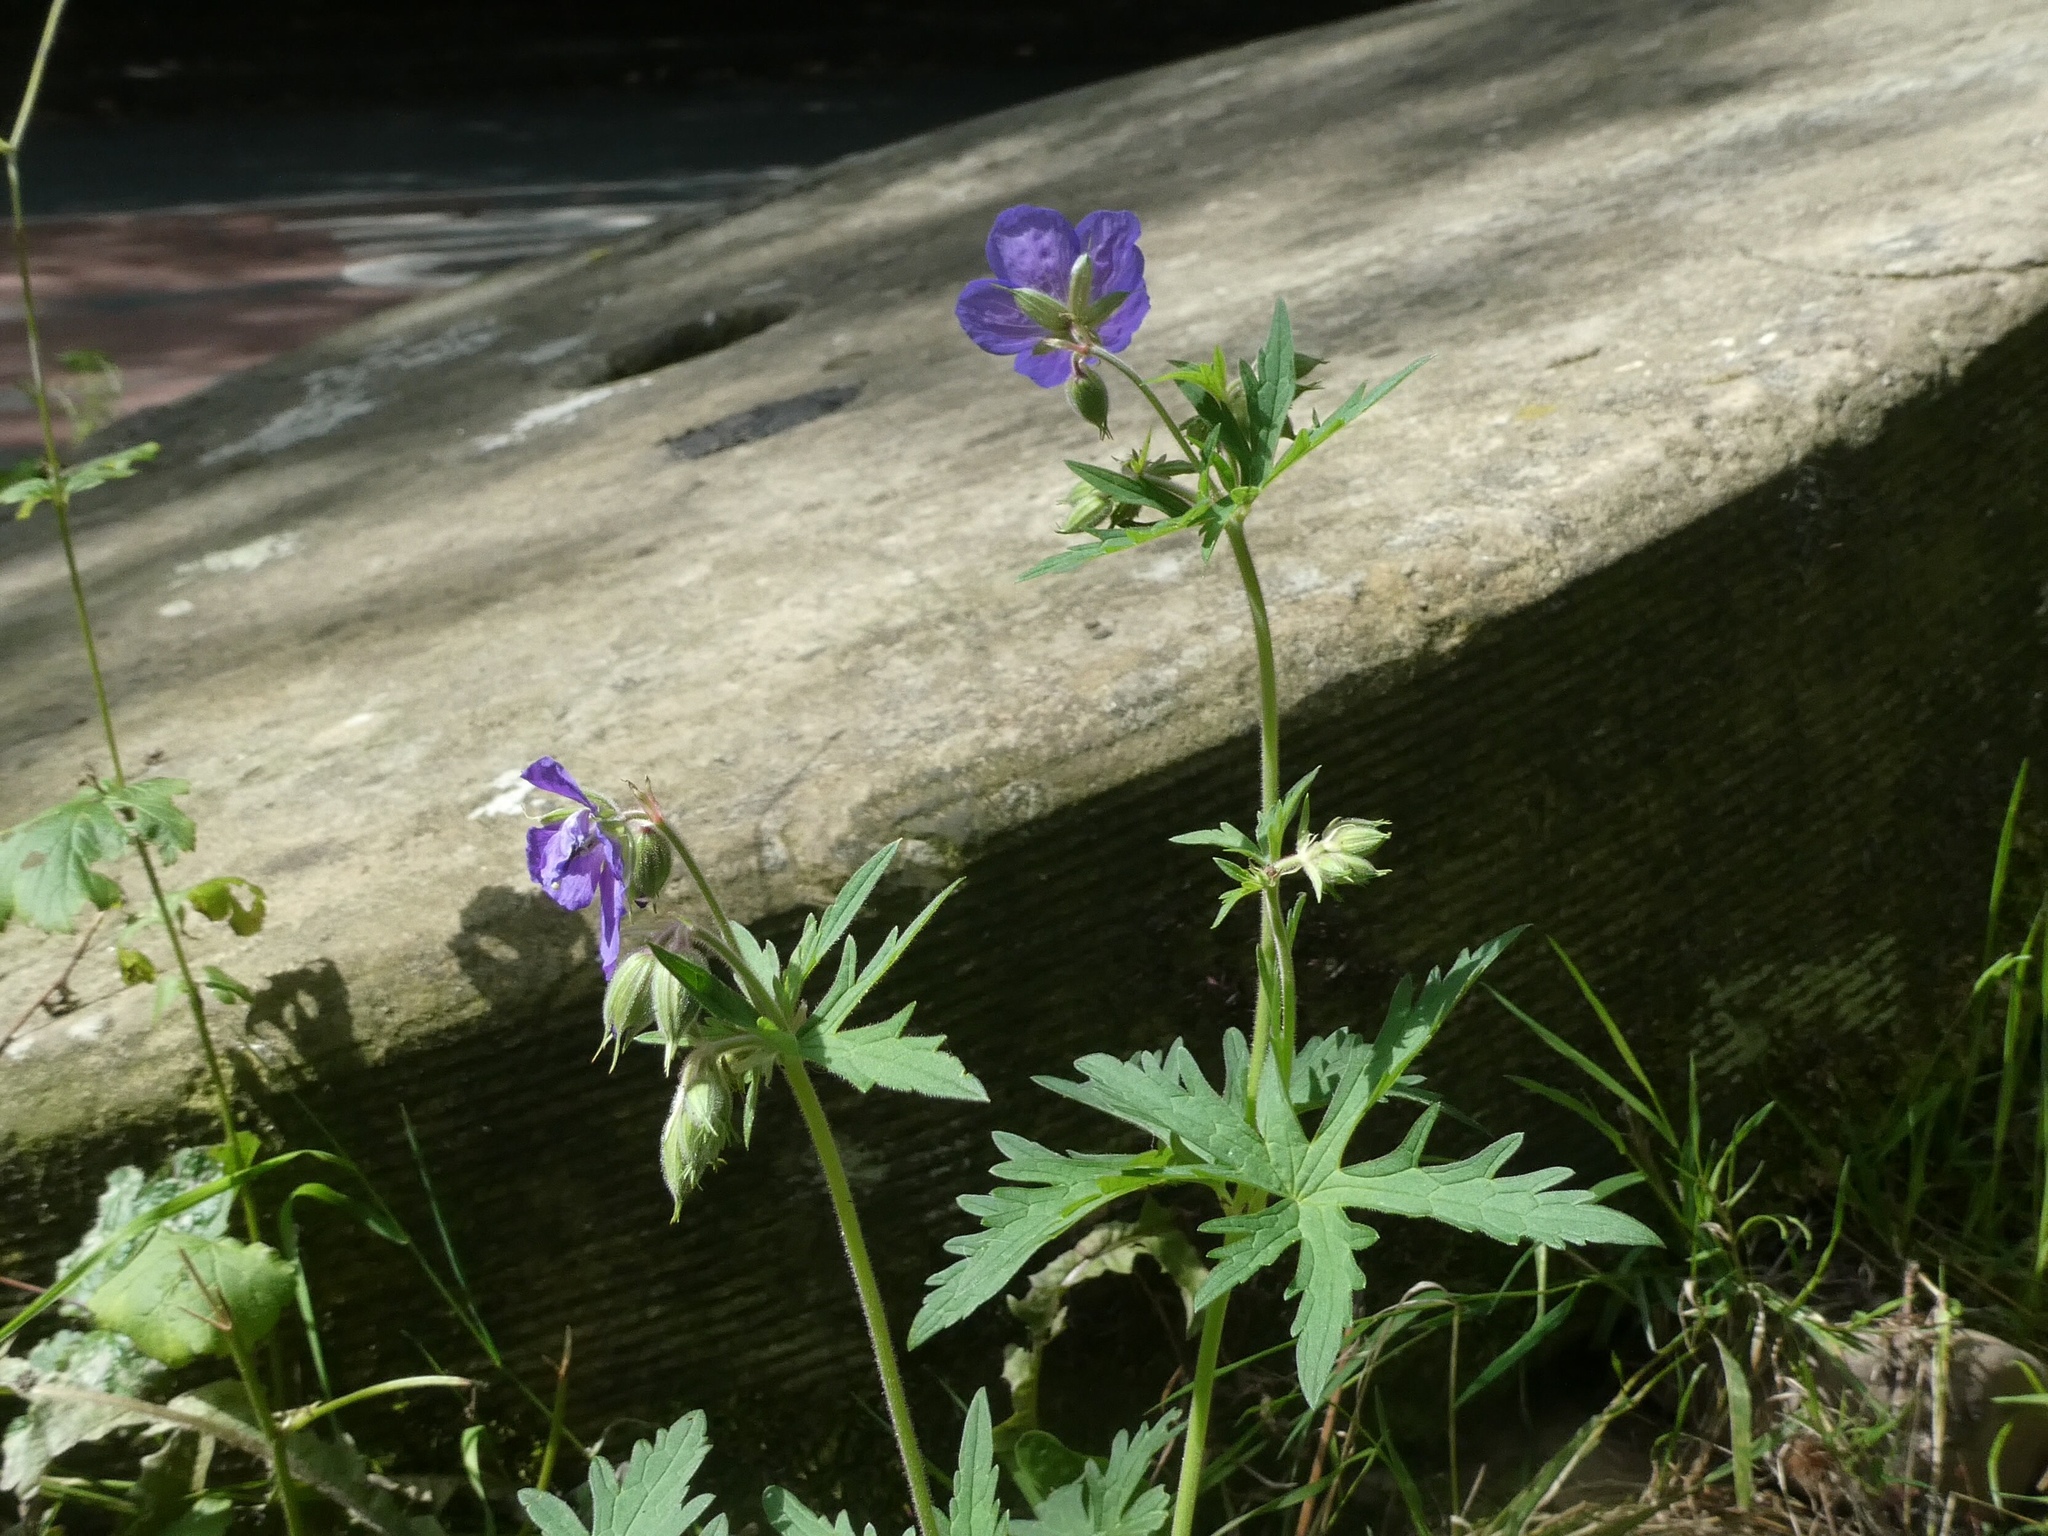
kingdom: Plantae
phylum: Tracheophyta
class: Magnoliopsida
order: Geraniales
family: Geraniaceae
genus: Geranium
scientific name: Geranium pratense
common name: Meadow crane's-bill
